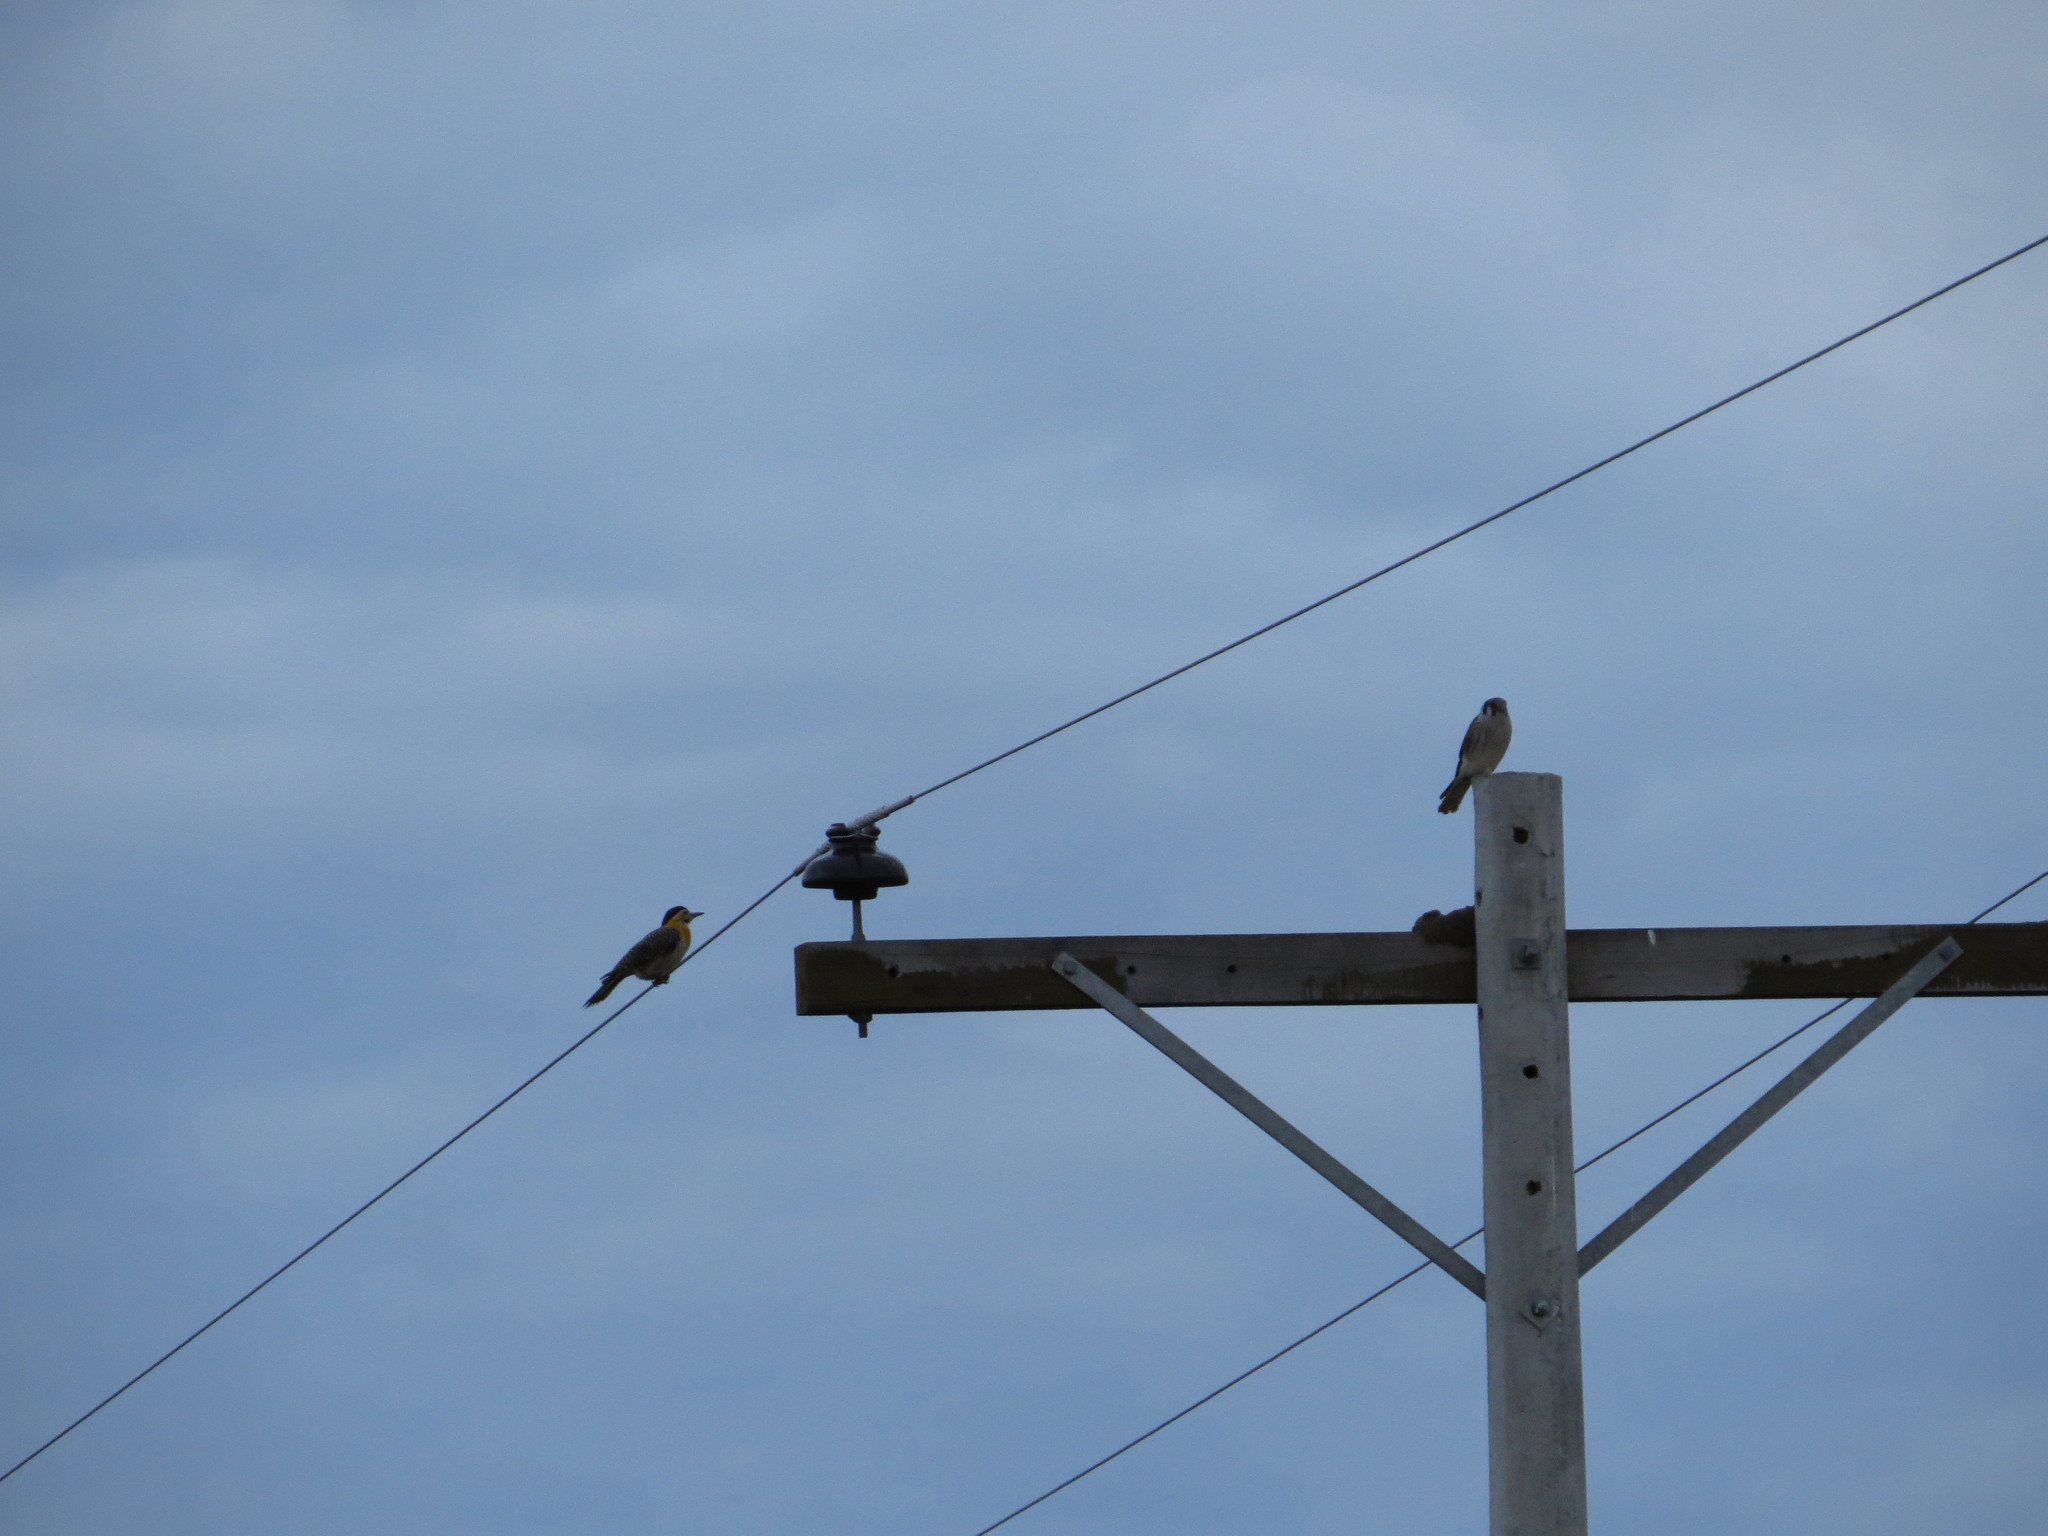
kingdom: Animalia
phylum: Chordata
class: Aves
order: Piciformes
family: Picidae
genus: Colaptes
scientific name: Colaptes campestris
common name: Campo flicker
